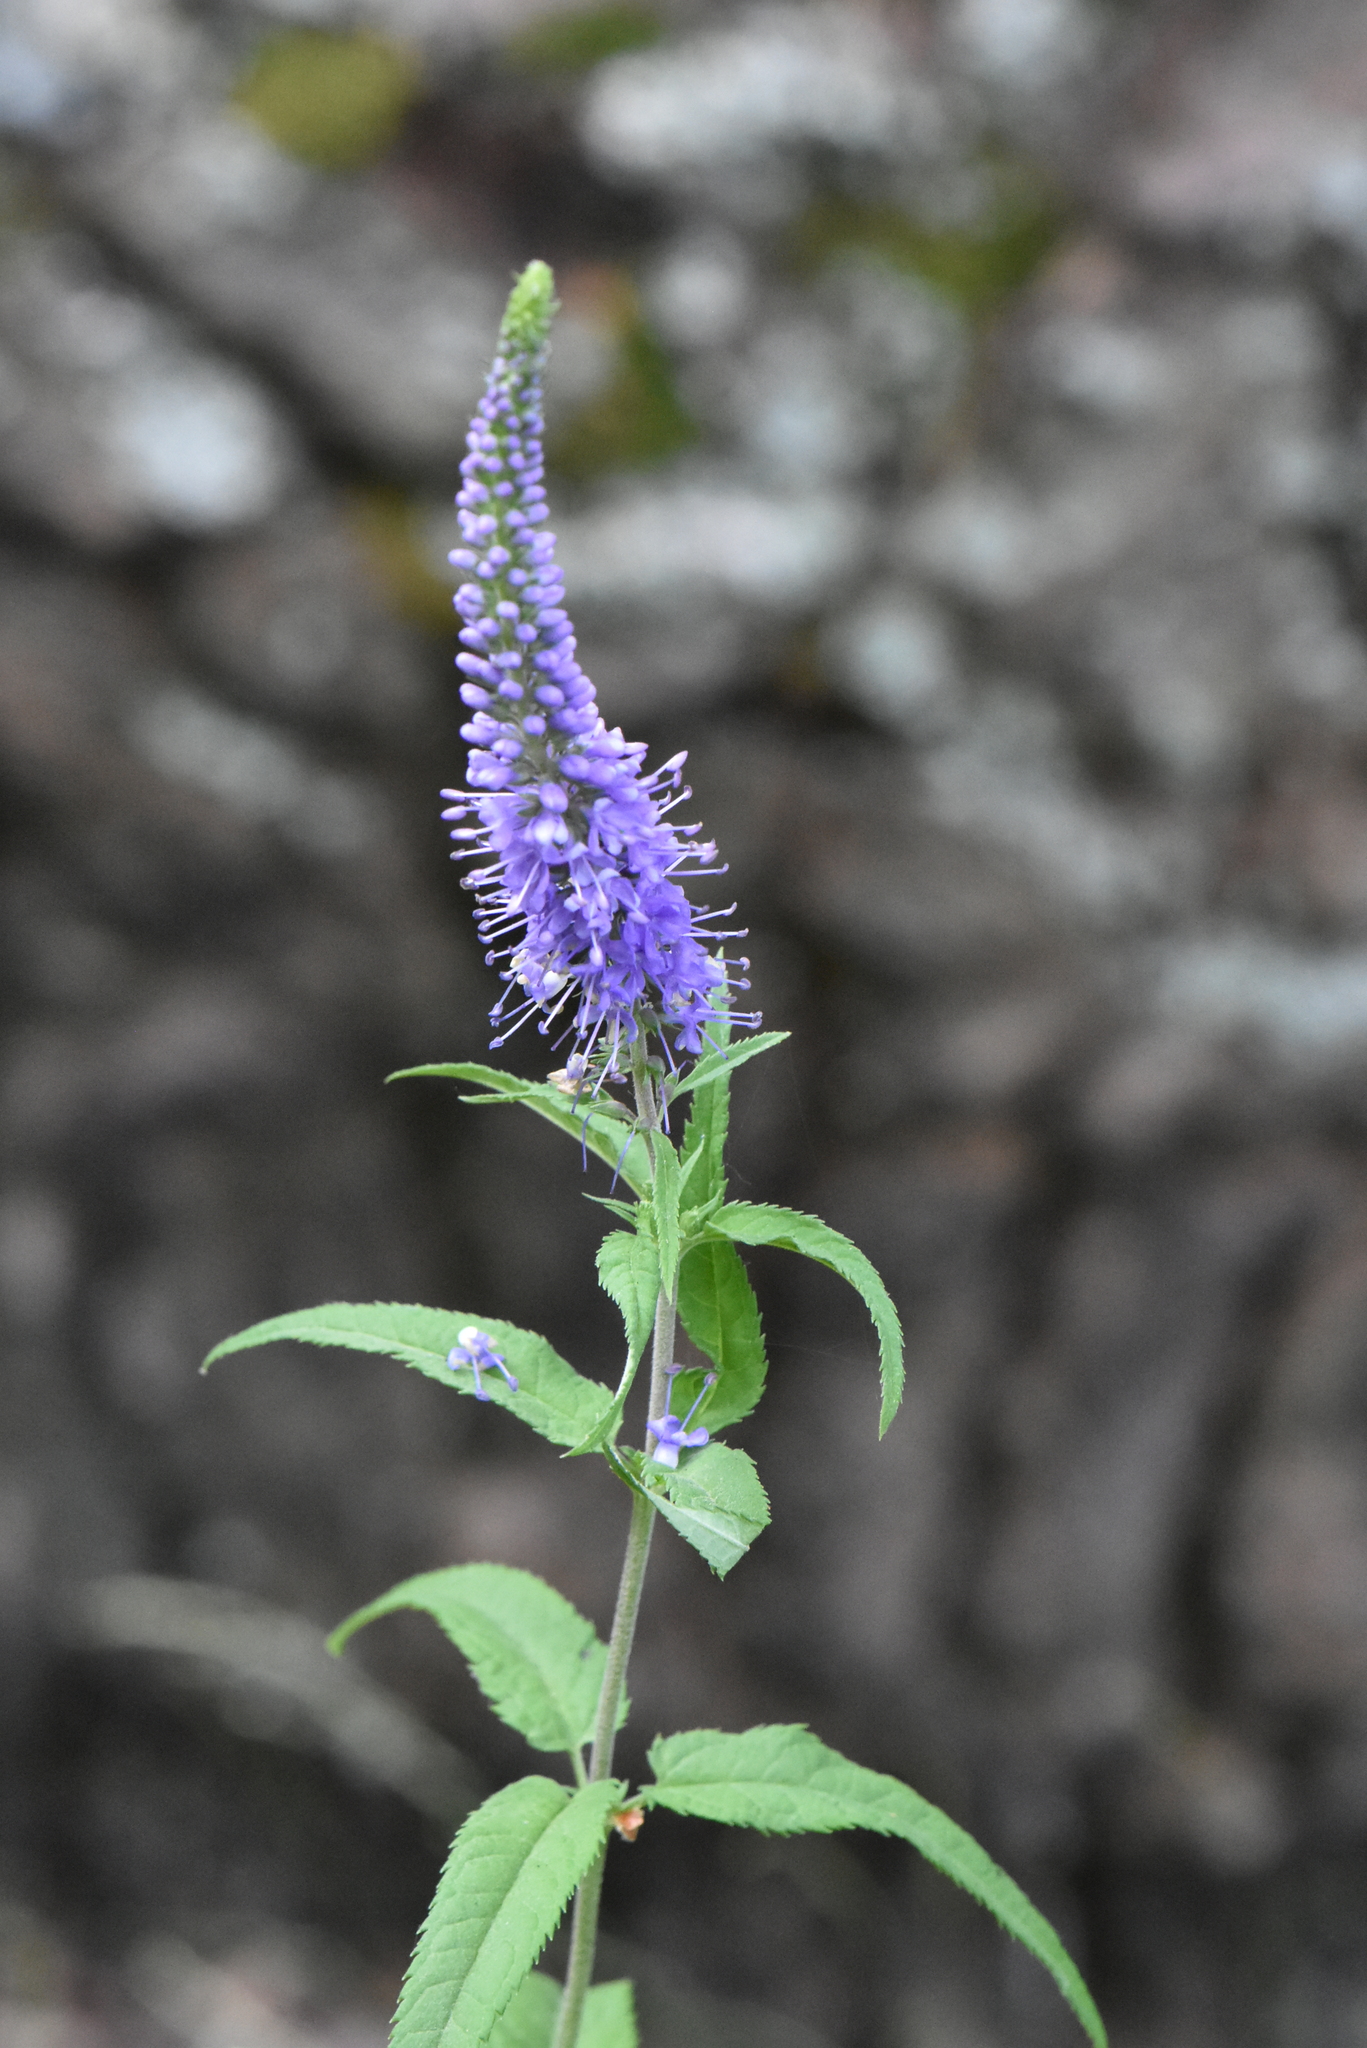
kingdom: Plantae
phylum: Tracheophyta
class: Magnoliopsida
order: Lamiales
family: Plantaginaceae
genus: Veronica
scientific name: Veronica longifolia
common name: Garden speedwell
